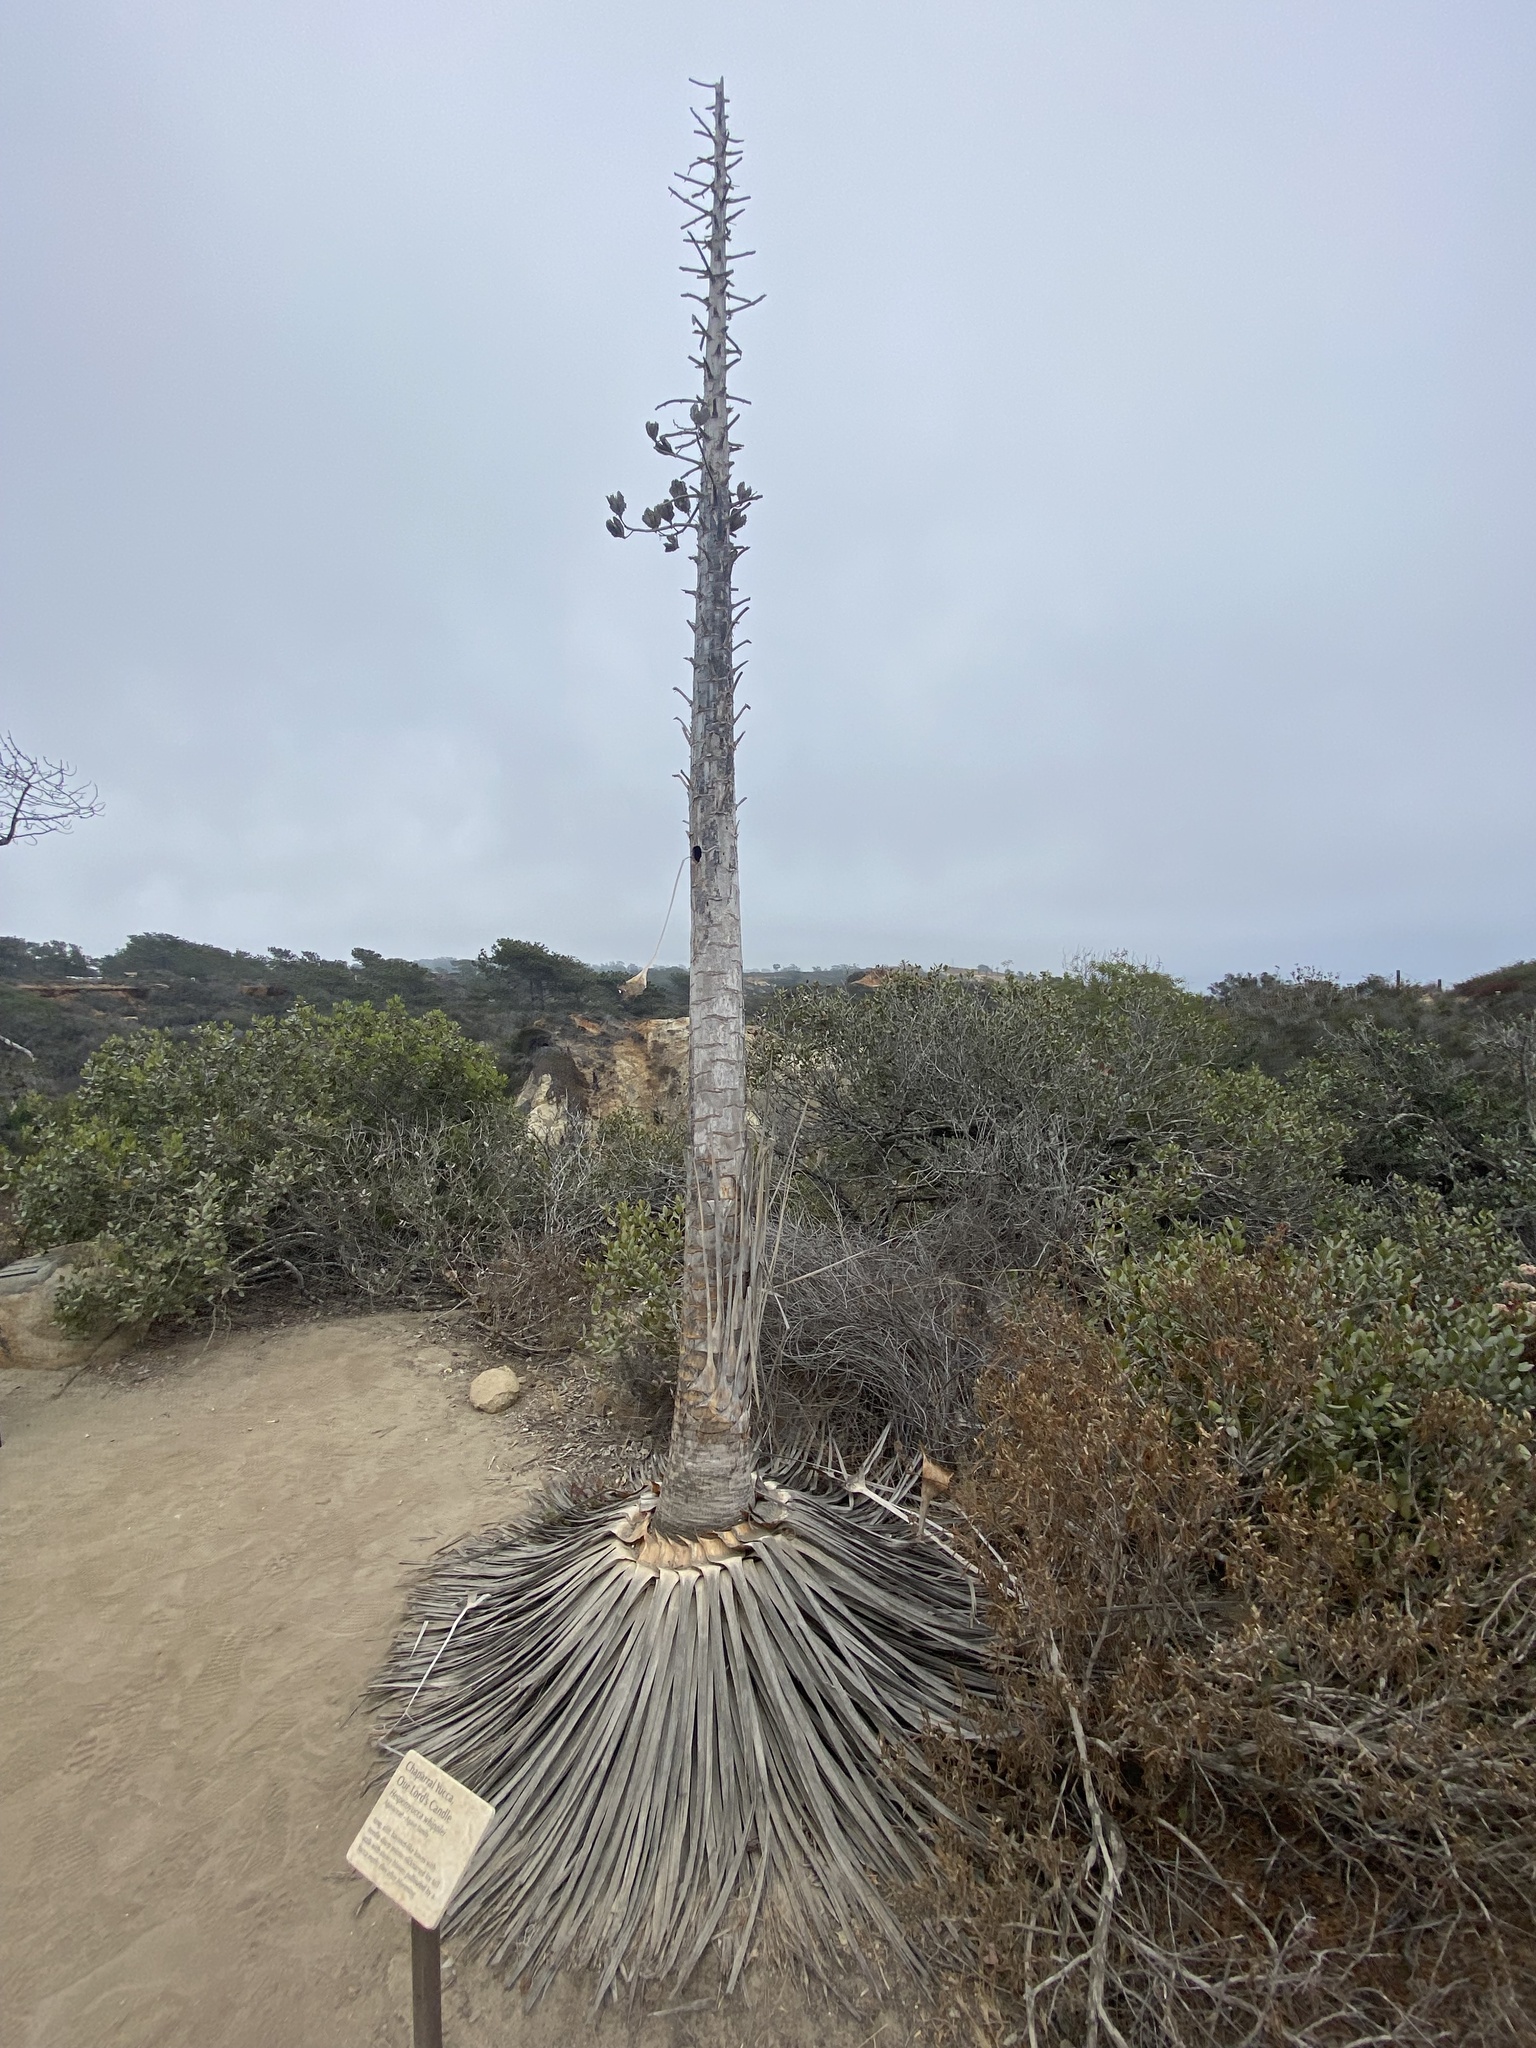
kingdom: Plantae
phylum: Tracheophyta
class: Liliopsida
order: Asparagales
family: Asparagaceae
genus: Hesperoyucca
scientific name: Hesperoyucca whipplei
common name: Our lord's-candle
